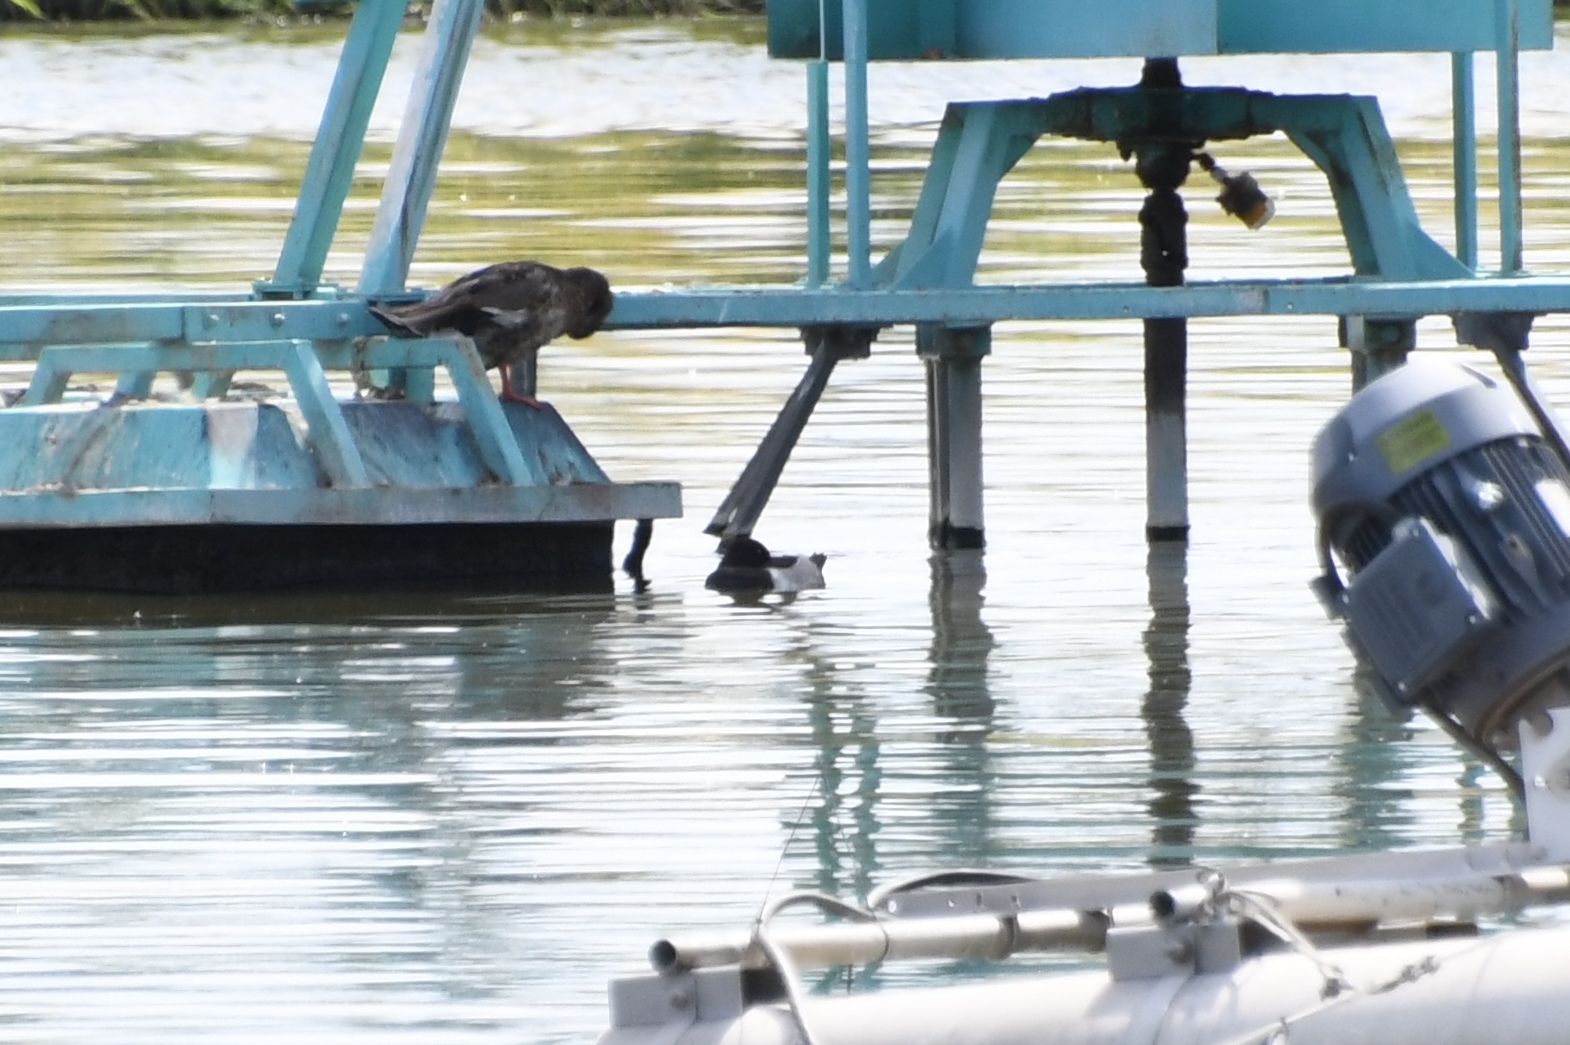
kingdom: Animalia
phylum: Chordata
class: Aves
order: Anseriformes
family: Anatidae
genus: Aythya
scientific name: Aythya collaris
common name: Ring-necked duck
